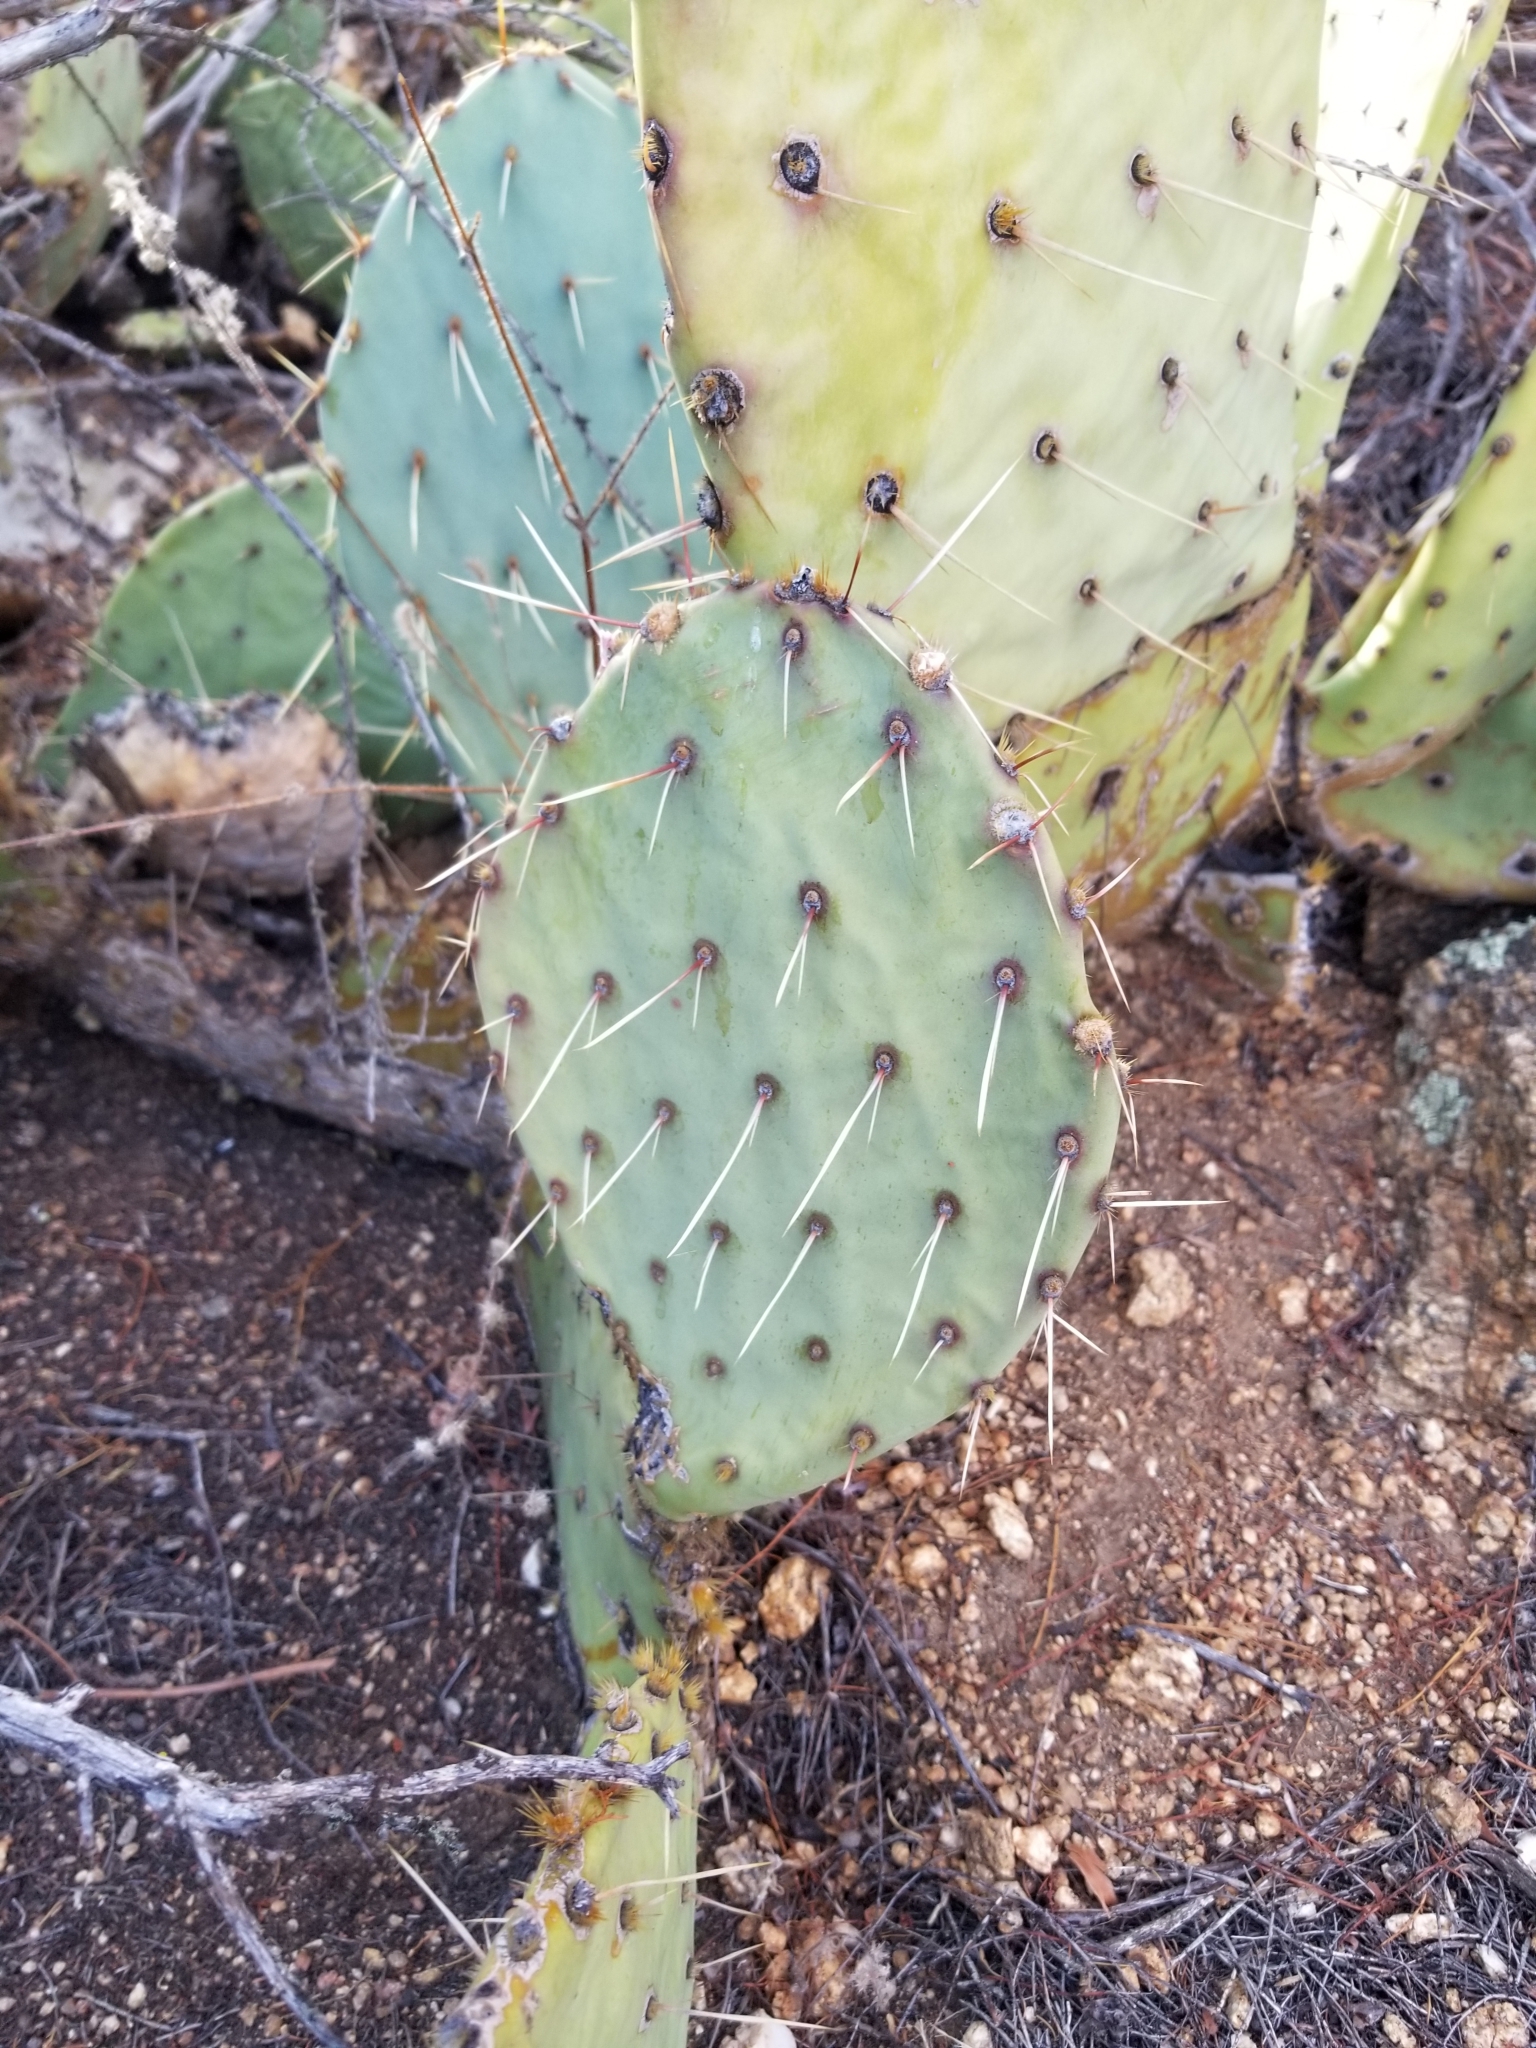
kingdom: Plantae
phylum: Tracheophyta
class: Magnoliopsida
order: Caryophyllales
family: Cactaceae
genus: Opuntia
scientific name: Opuntia phaeacantha
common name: New mexico prickly-pear
